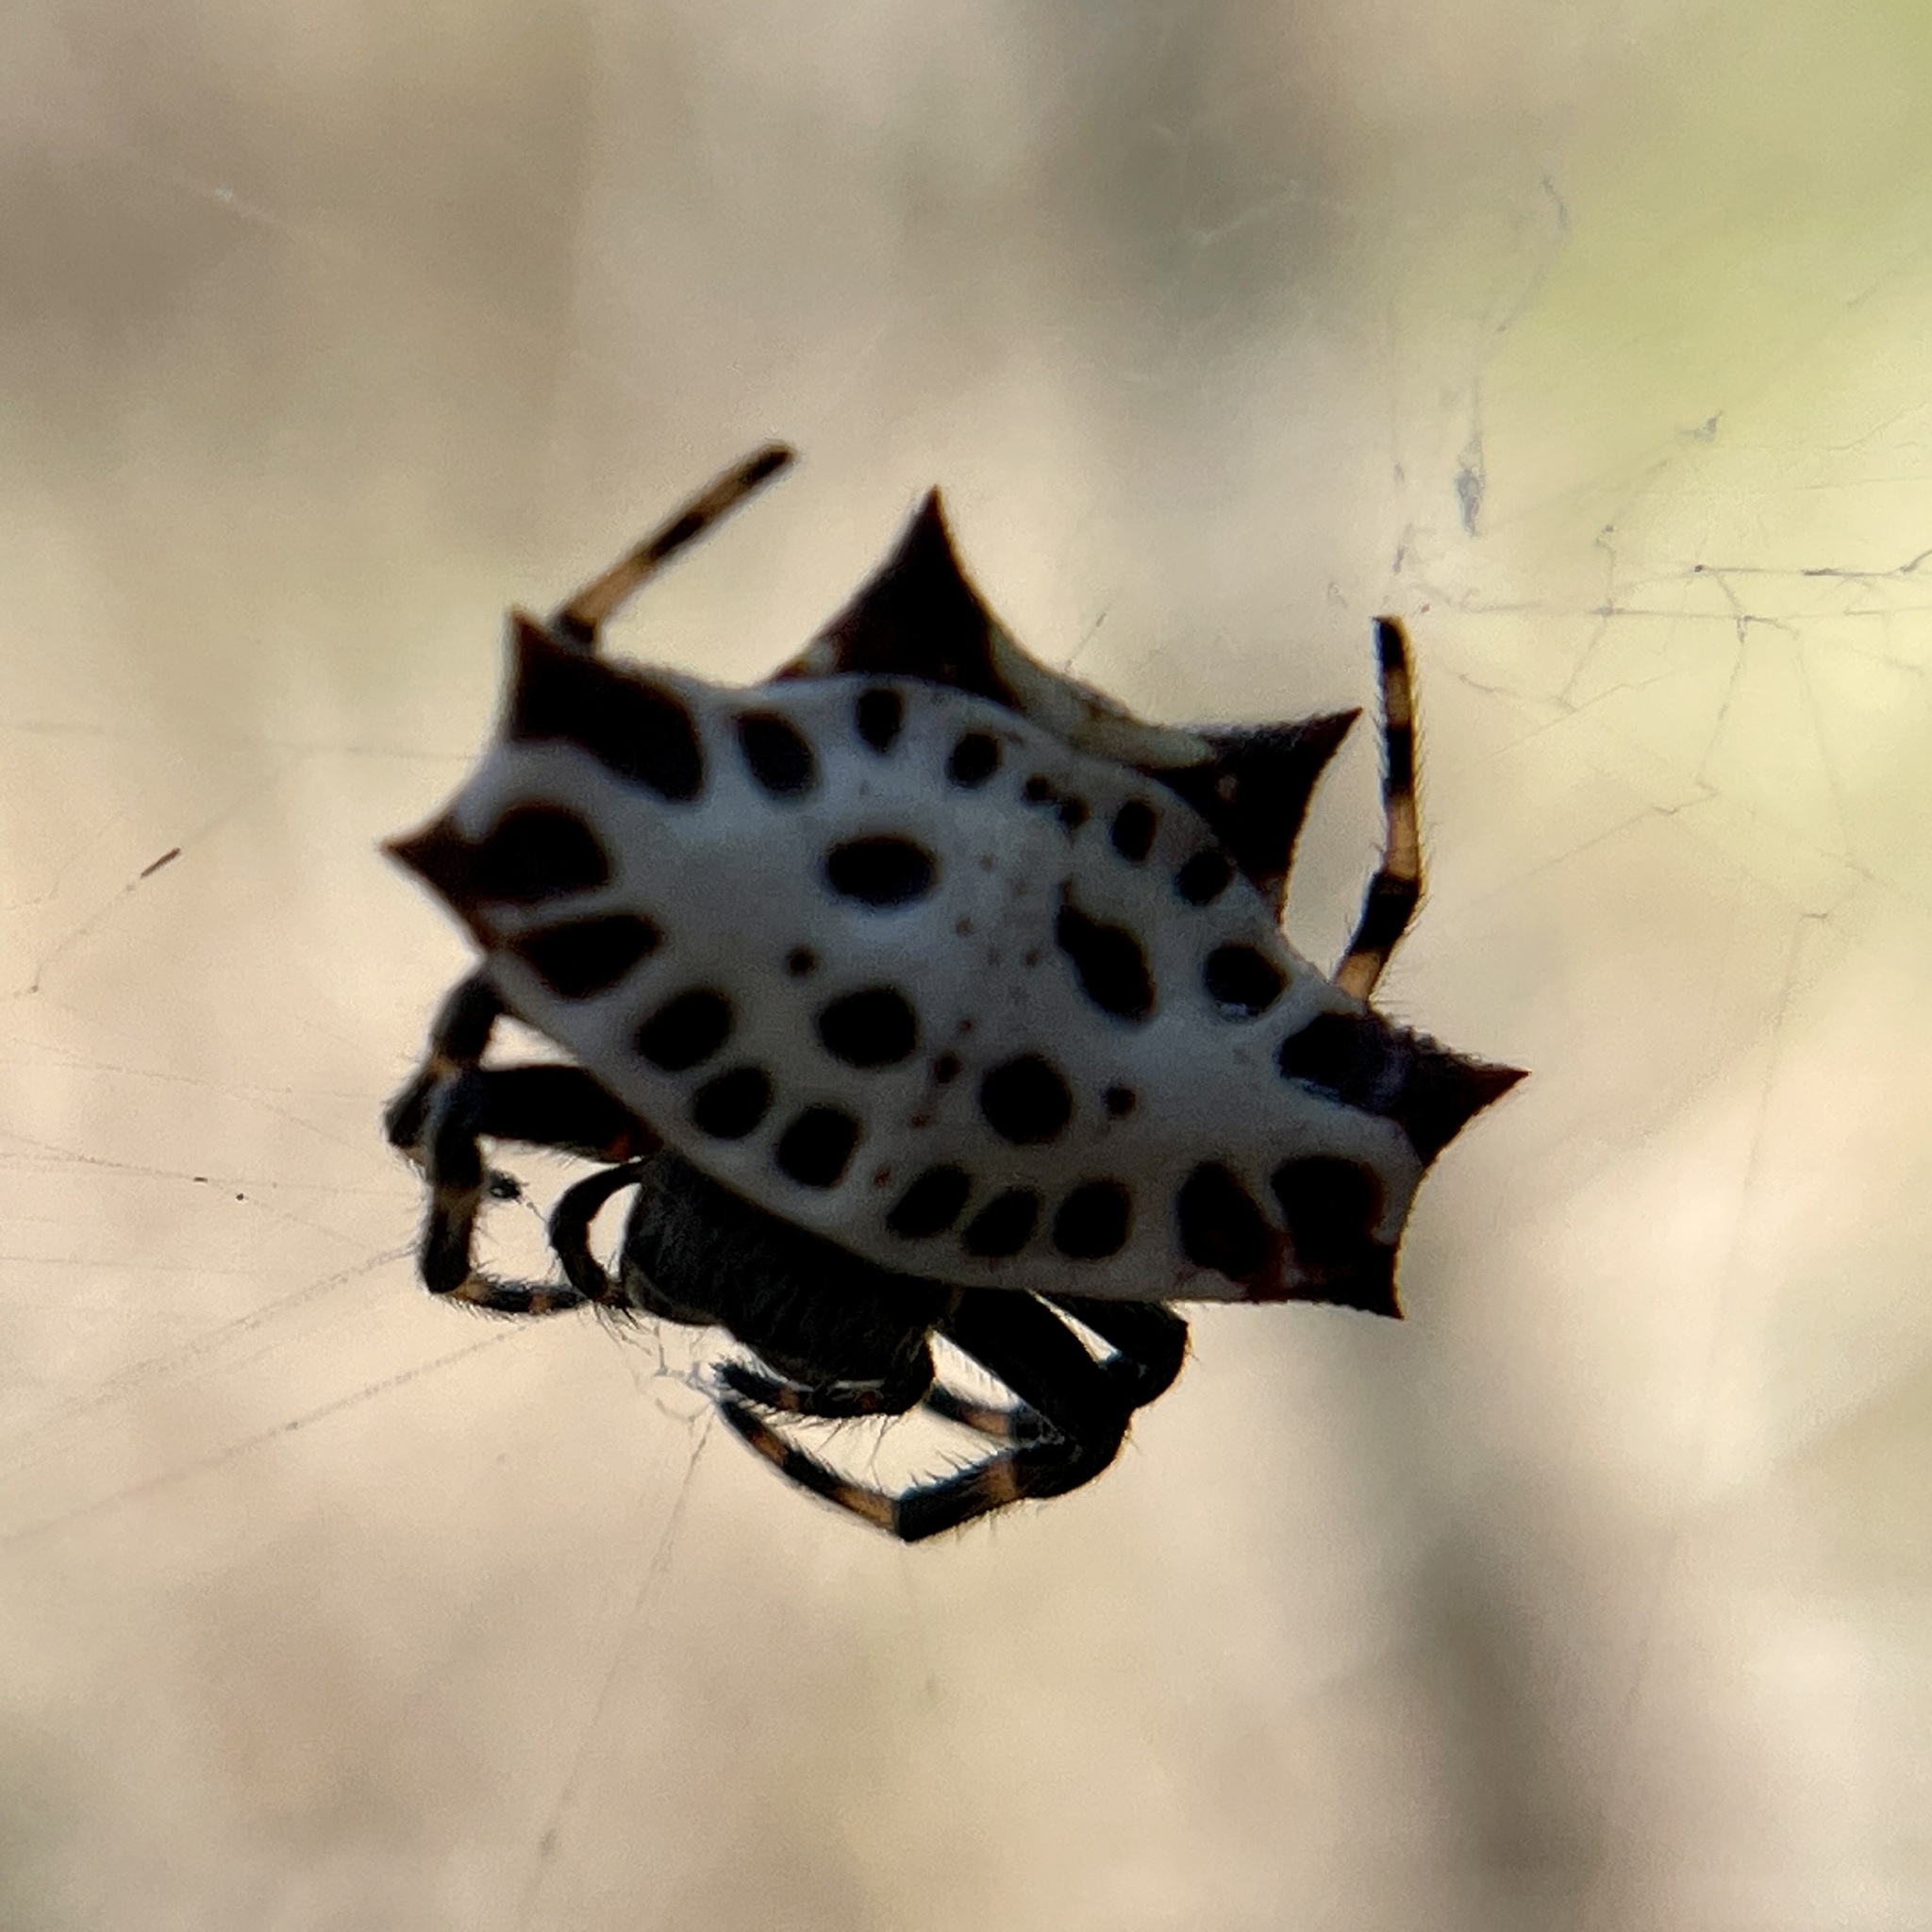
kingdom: Animalia
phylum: Arthropoda
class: Arachnida
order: Araneae
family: Araneidae
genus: Gasteracantha
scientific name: Gasteracantha cancriformis
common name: Orb weavers
